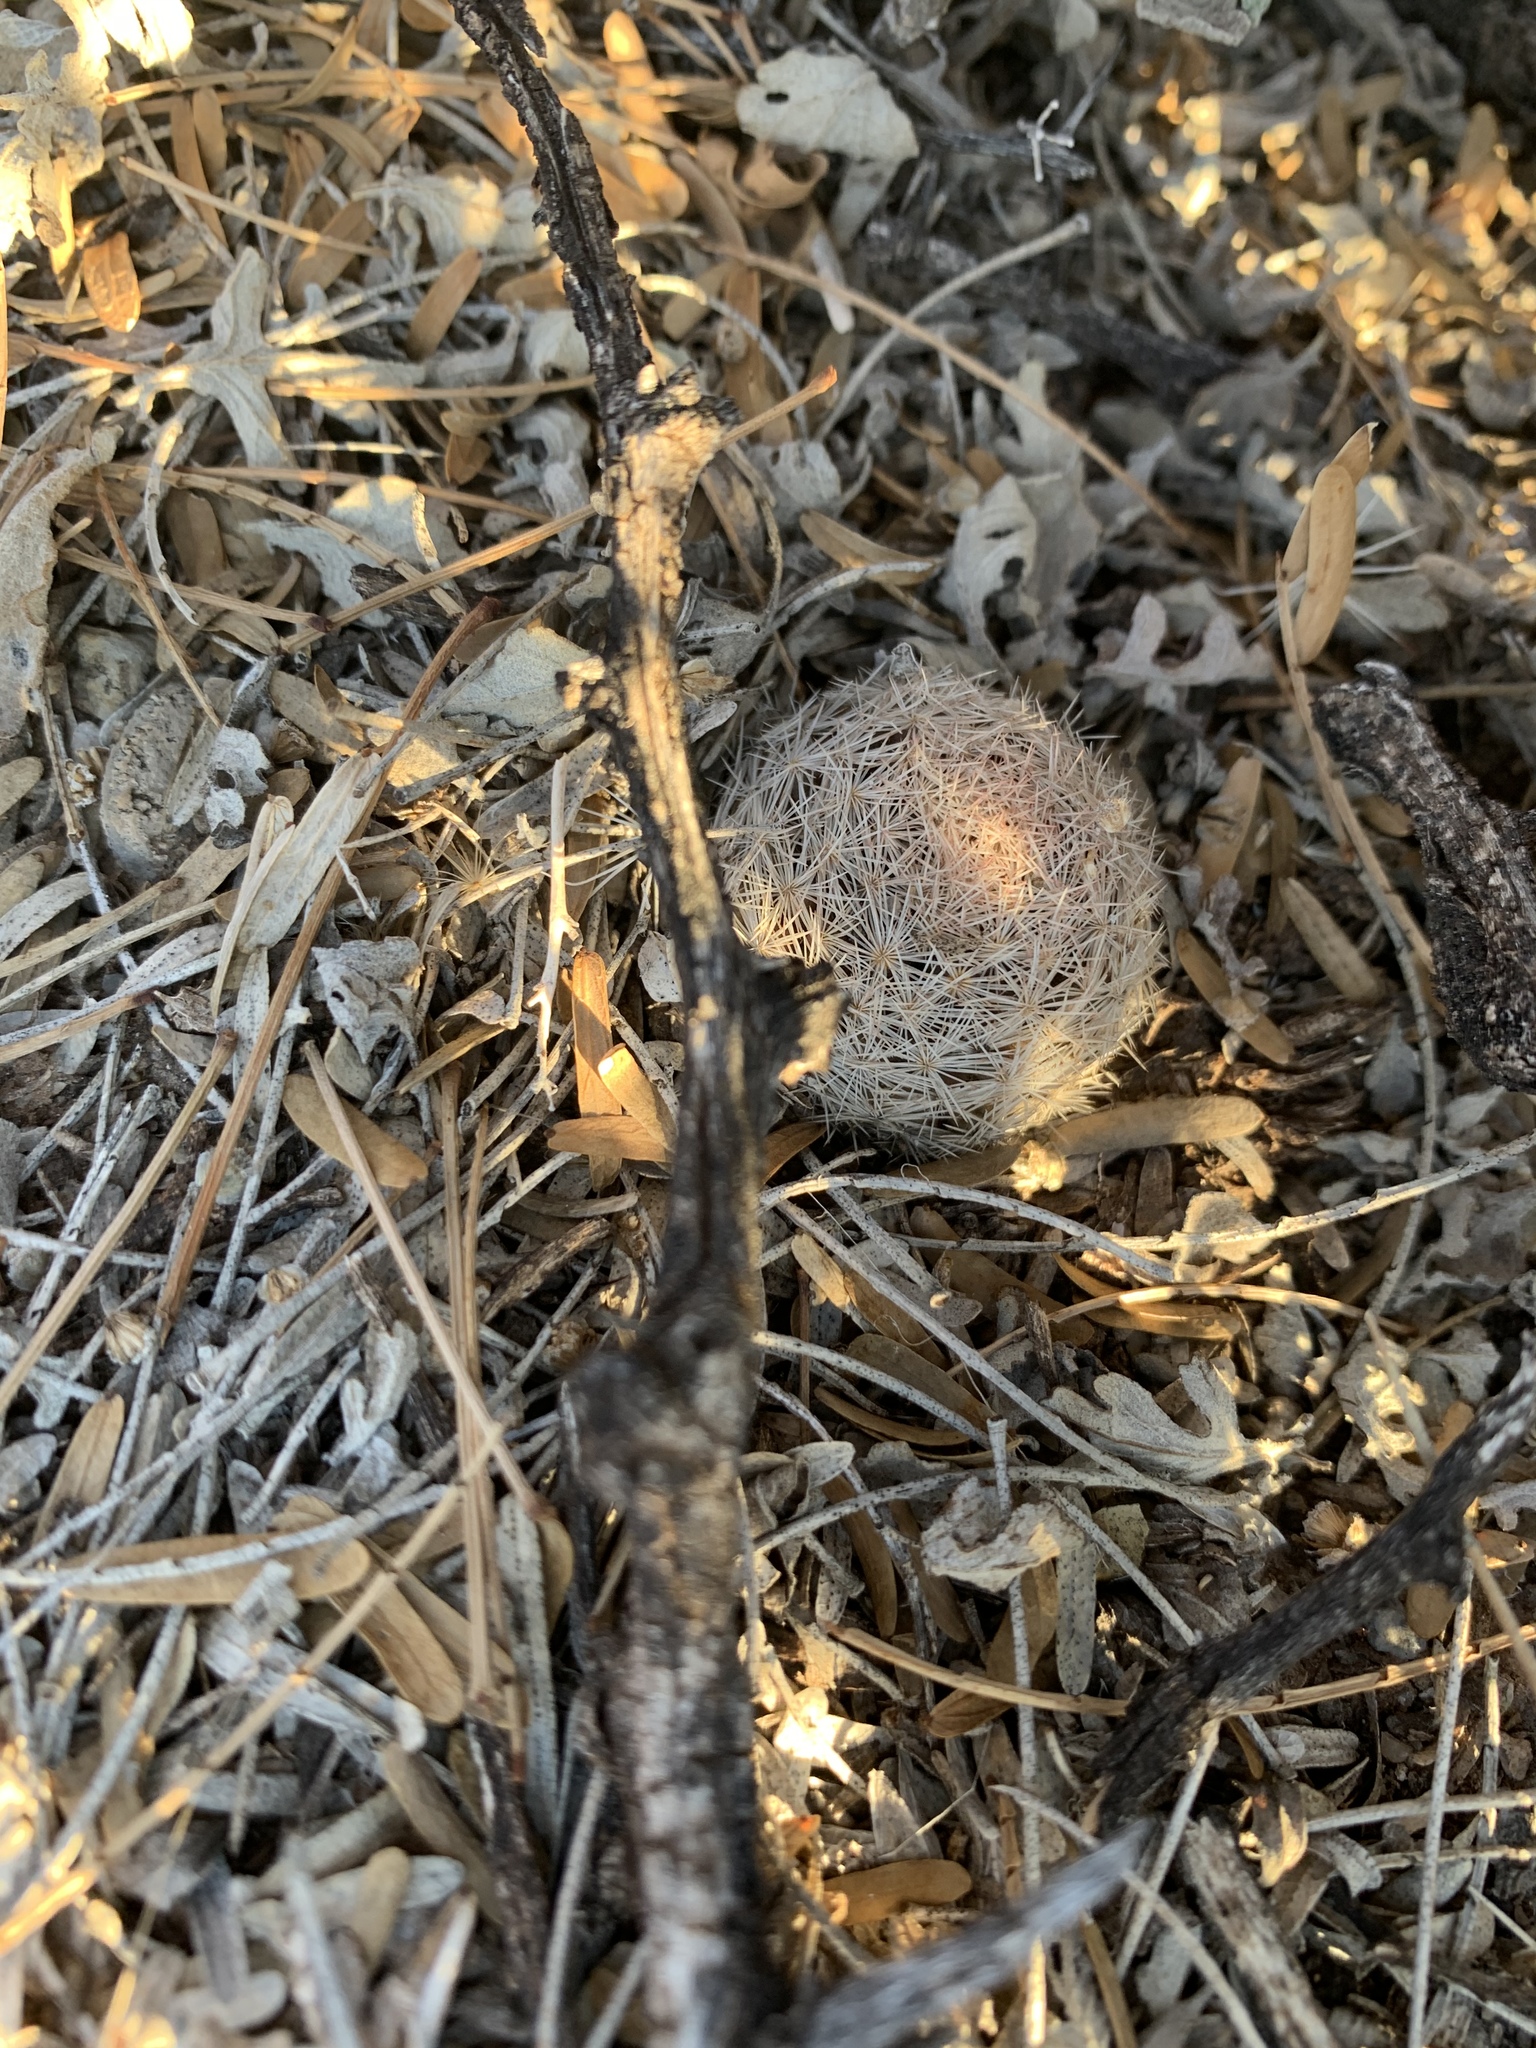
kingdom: Plantae
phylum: Tracheophyta
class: Magnoliopsida
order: Caryophyllales
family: Cactaceae
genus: Mammillaria
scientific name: Mammillaria lasiacantha
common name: Lace-spine nipple cactus
